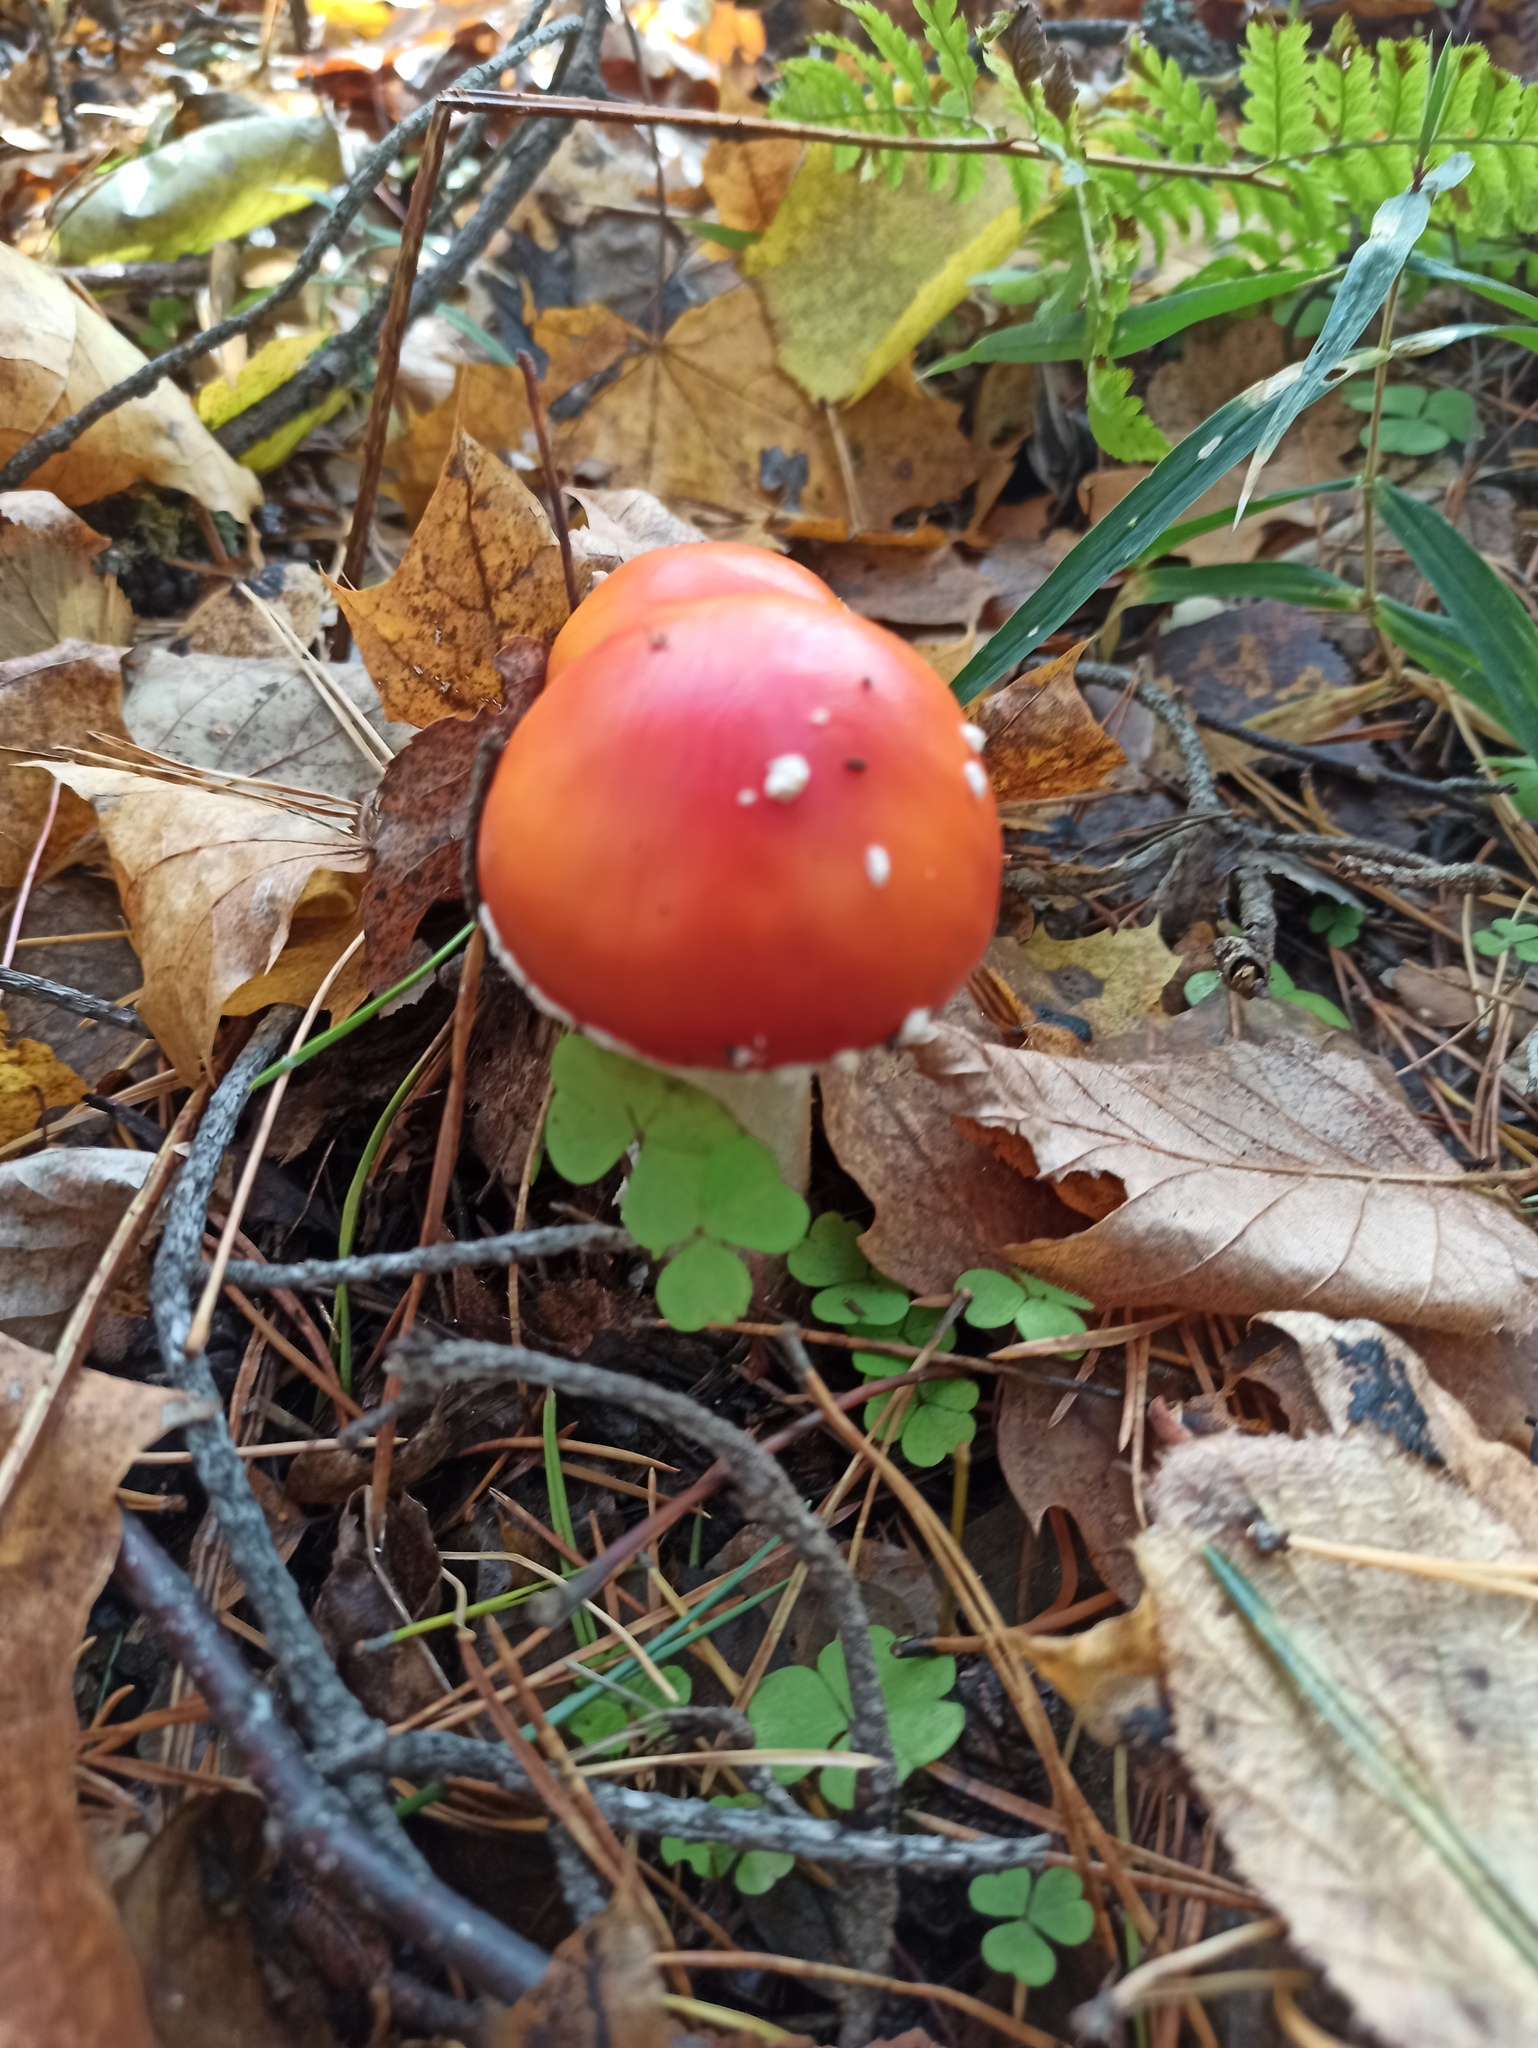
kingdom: Fungi
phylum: Basidiomycota
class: Agaricomycetes
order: Agaricales
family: Amanitaceae
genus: Amanita
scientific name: Amanita muscaria
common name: Fly agaric
